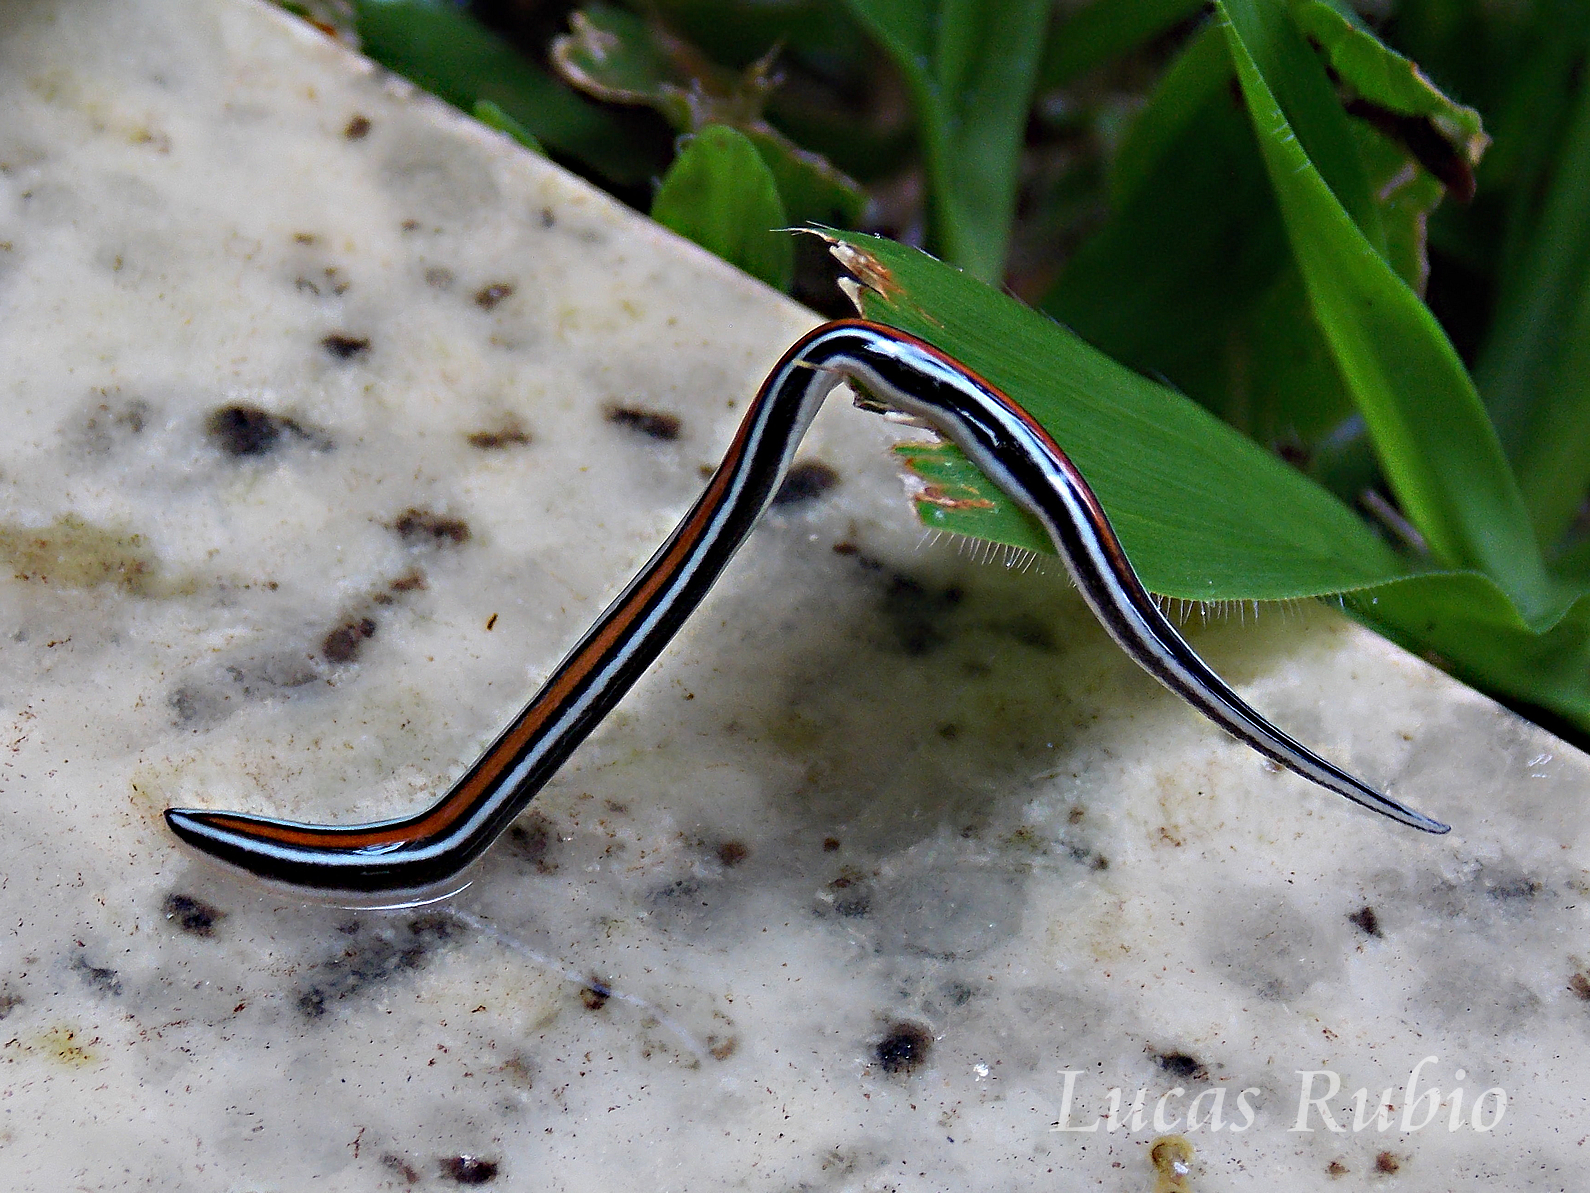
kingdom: Animalia
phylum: Platyhelminthes
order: Tricladida
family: Geoplanidae
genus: Geoplana
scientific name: Geoplana piratininga
